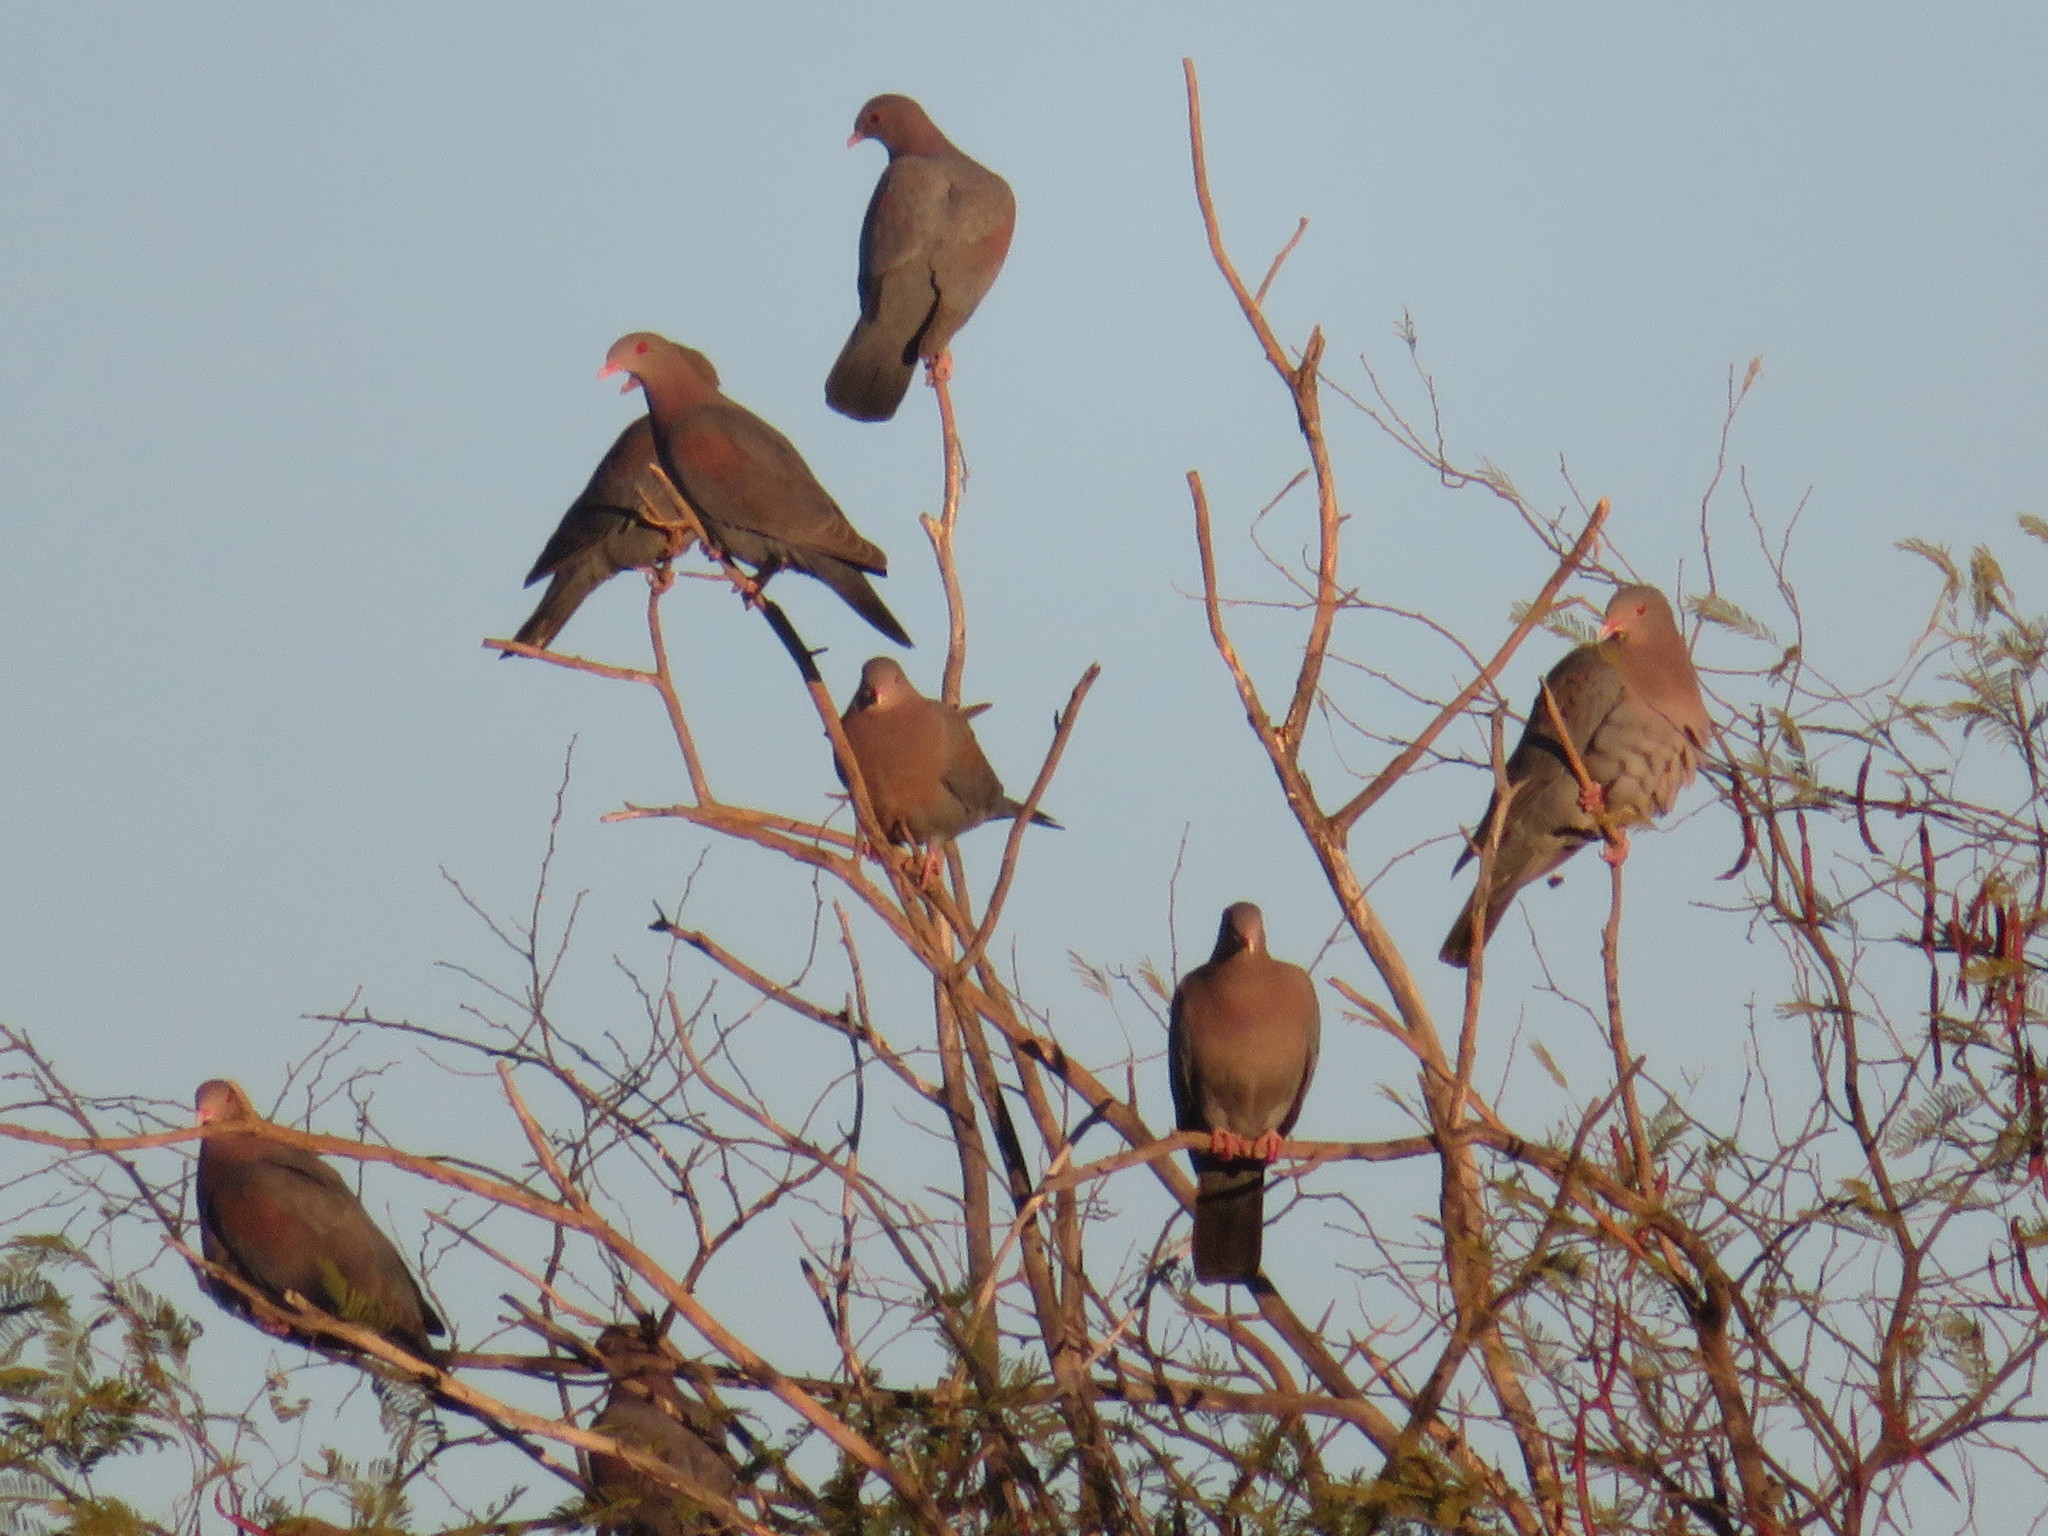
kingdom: Animalia
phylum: Chordata
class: Aves
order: Columbiformes
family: Columbidae
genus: Patagioenas
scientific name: Patagioenas flavirostris
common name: Red-billed pigeon
